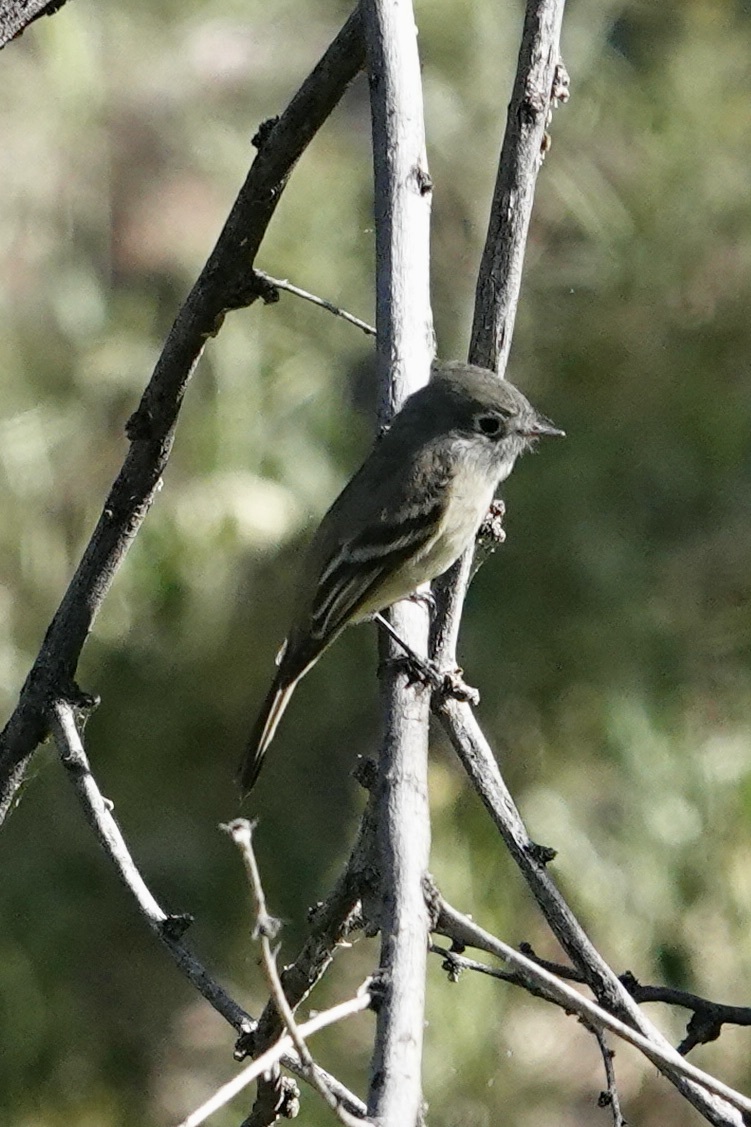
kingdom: Animalia
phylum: Chordata
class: Aves
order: Passeriformes
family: Tyrannidae
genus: Empidonax
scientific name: Empidonax hammondii
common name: Hammond's flycatcher
